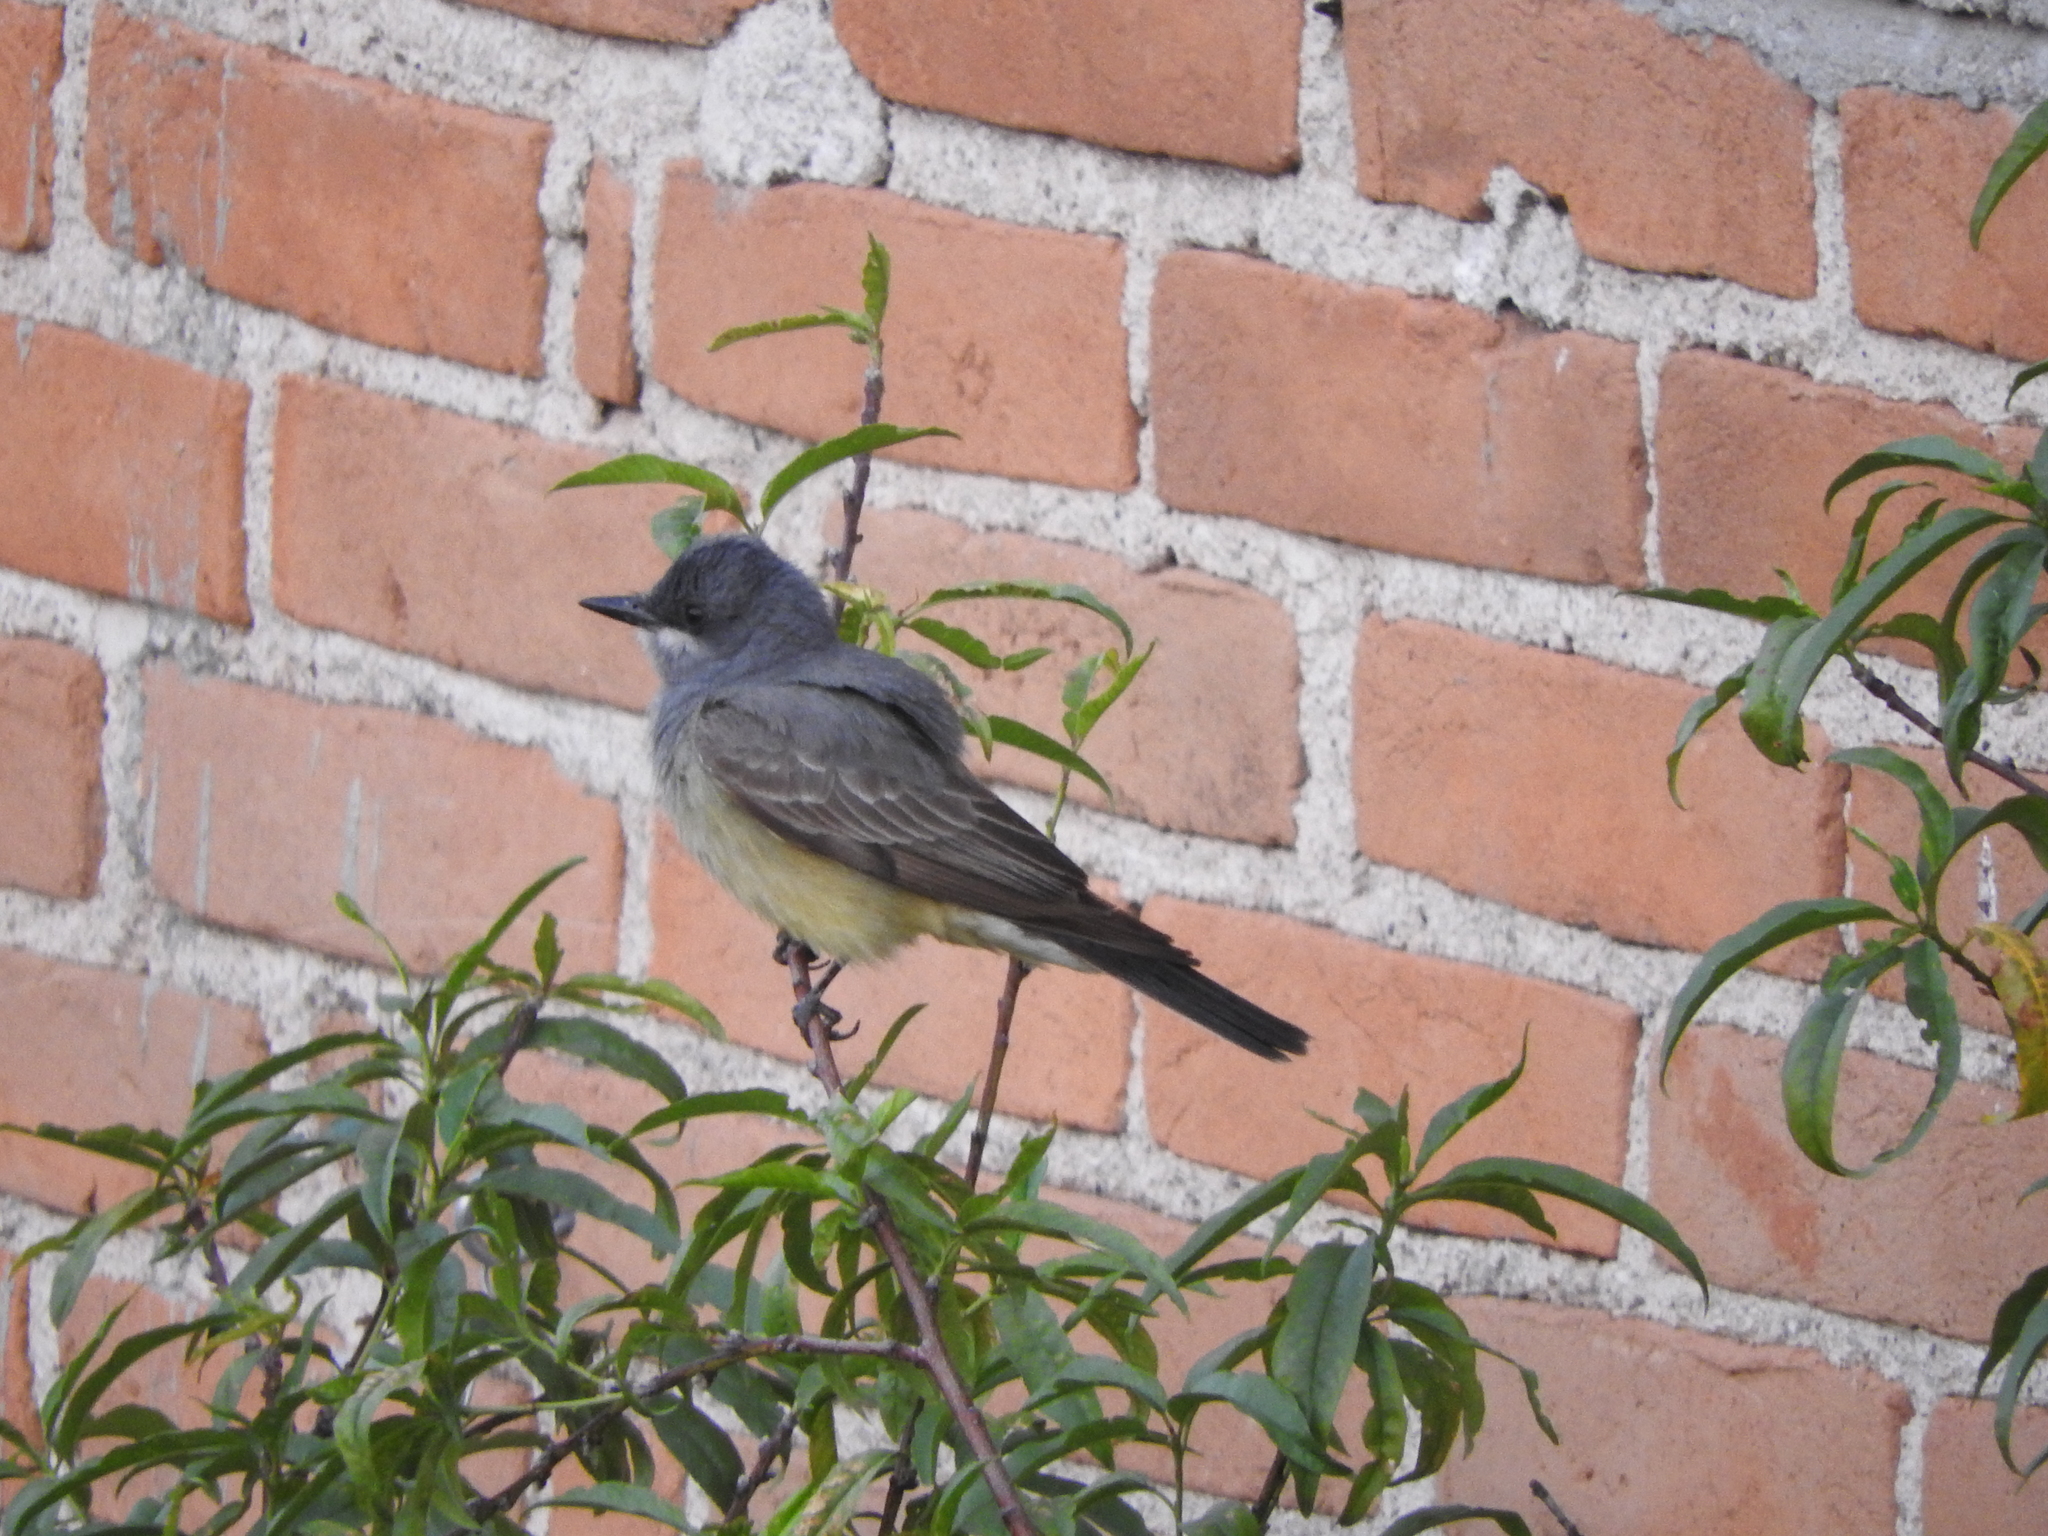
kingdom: Animalia
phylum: Chordata
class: Aves
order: Passeriformes
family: Tyrannidae
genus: Tyrannus
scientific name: Tyrannus vociferans
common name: Cassin's kingbird
